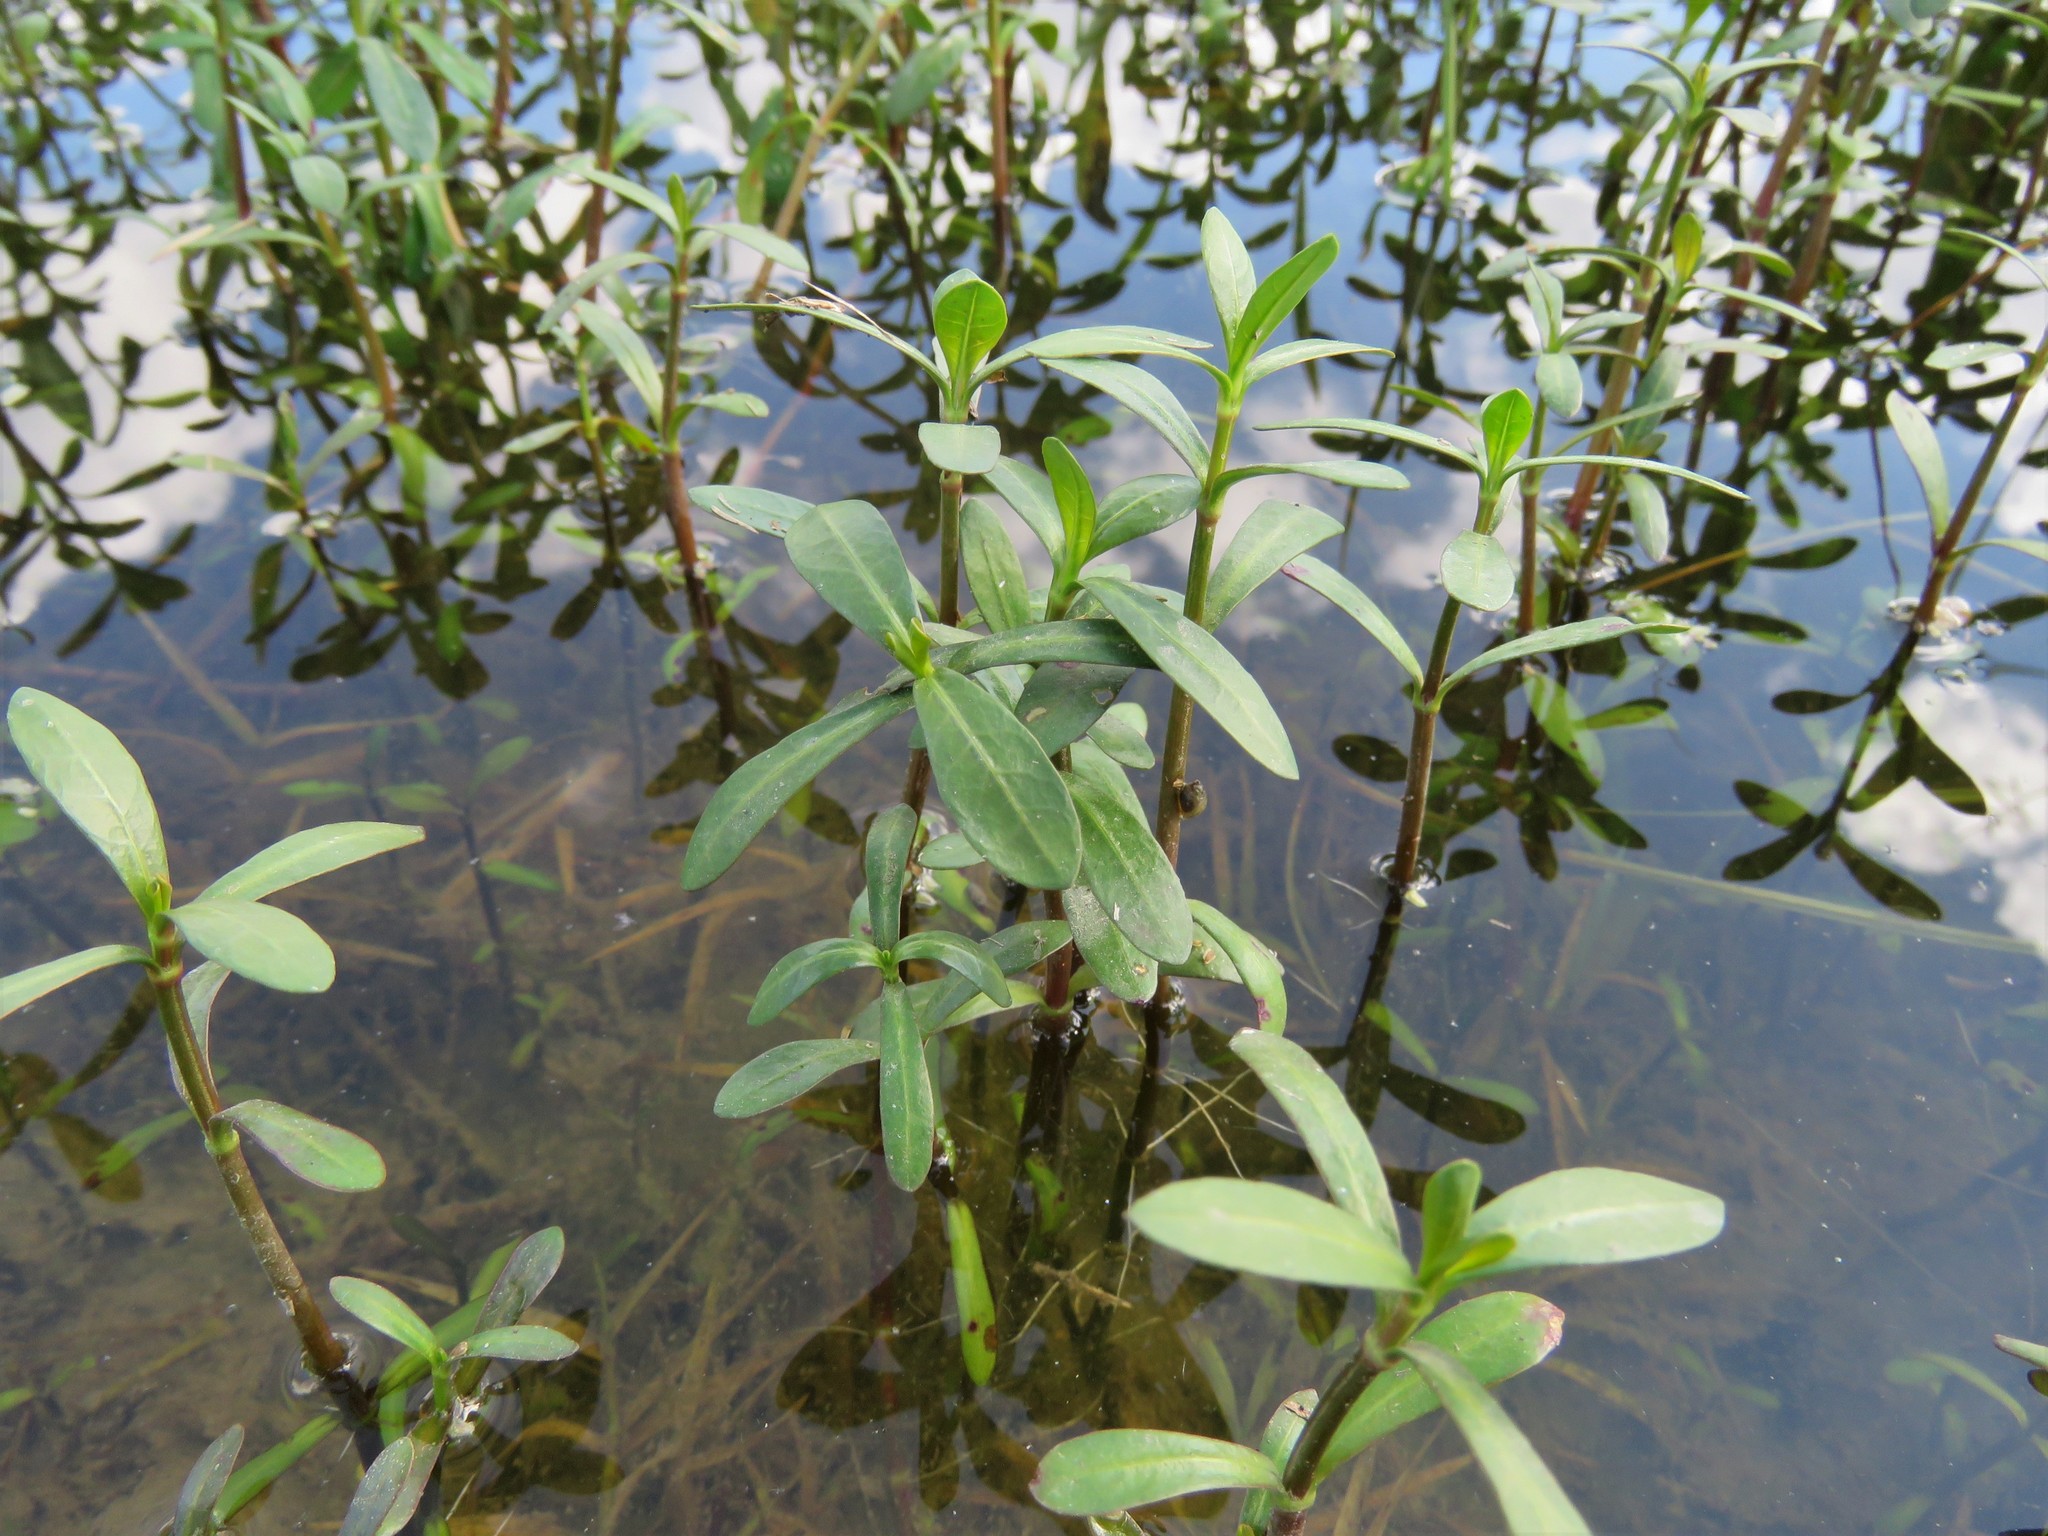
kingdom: Plantae
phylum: Tracheophyta
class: Magnoliopsida
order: Lamiales
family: Acanthaceae
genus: Dianthera
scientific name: Dianthera americana
